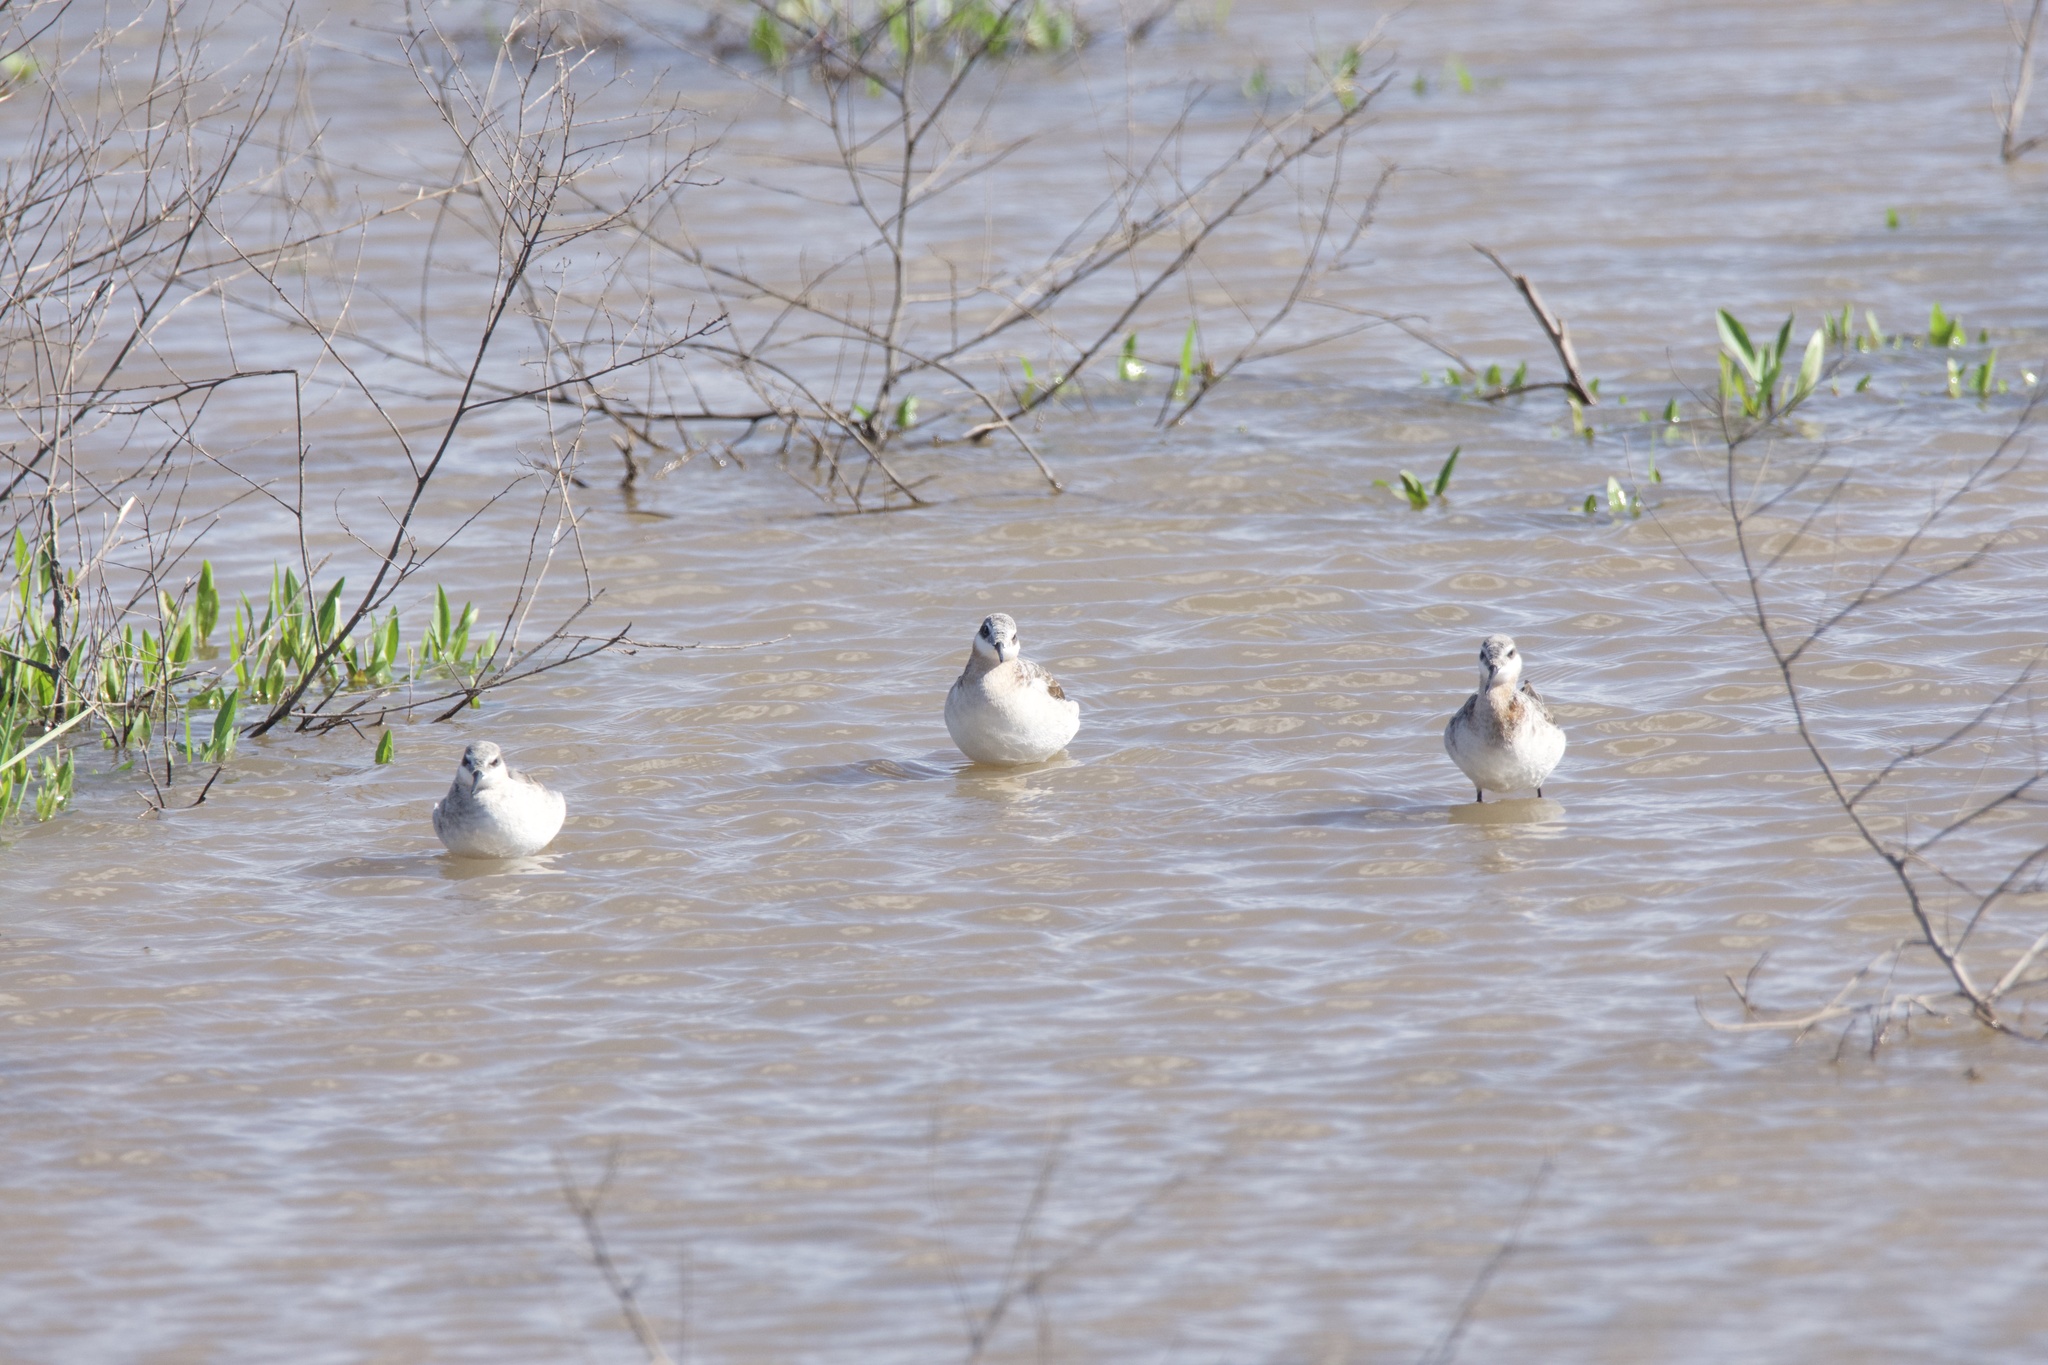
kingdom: Animalia
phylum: Chordata
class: Aves
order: Charadriiformes
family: Scolopacidae
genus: Phalaropus
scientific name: Phalaropus tricolor
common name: Wilson's phalarope
